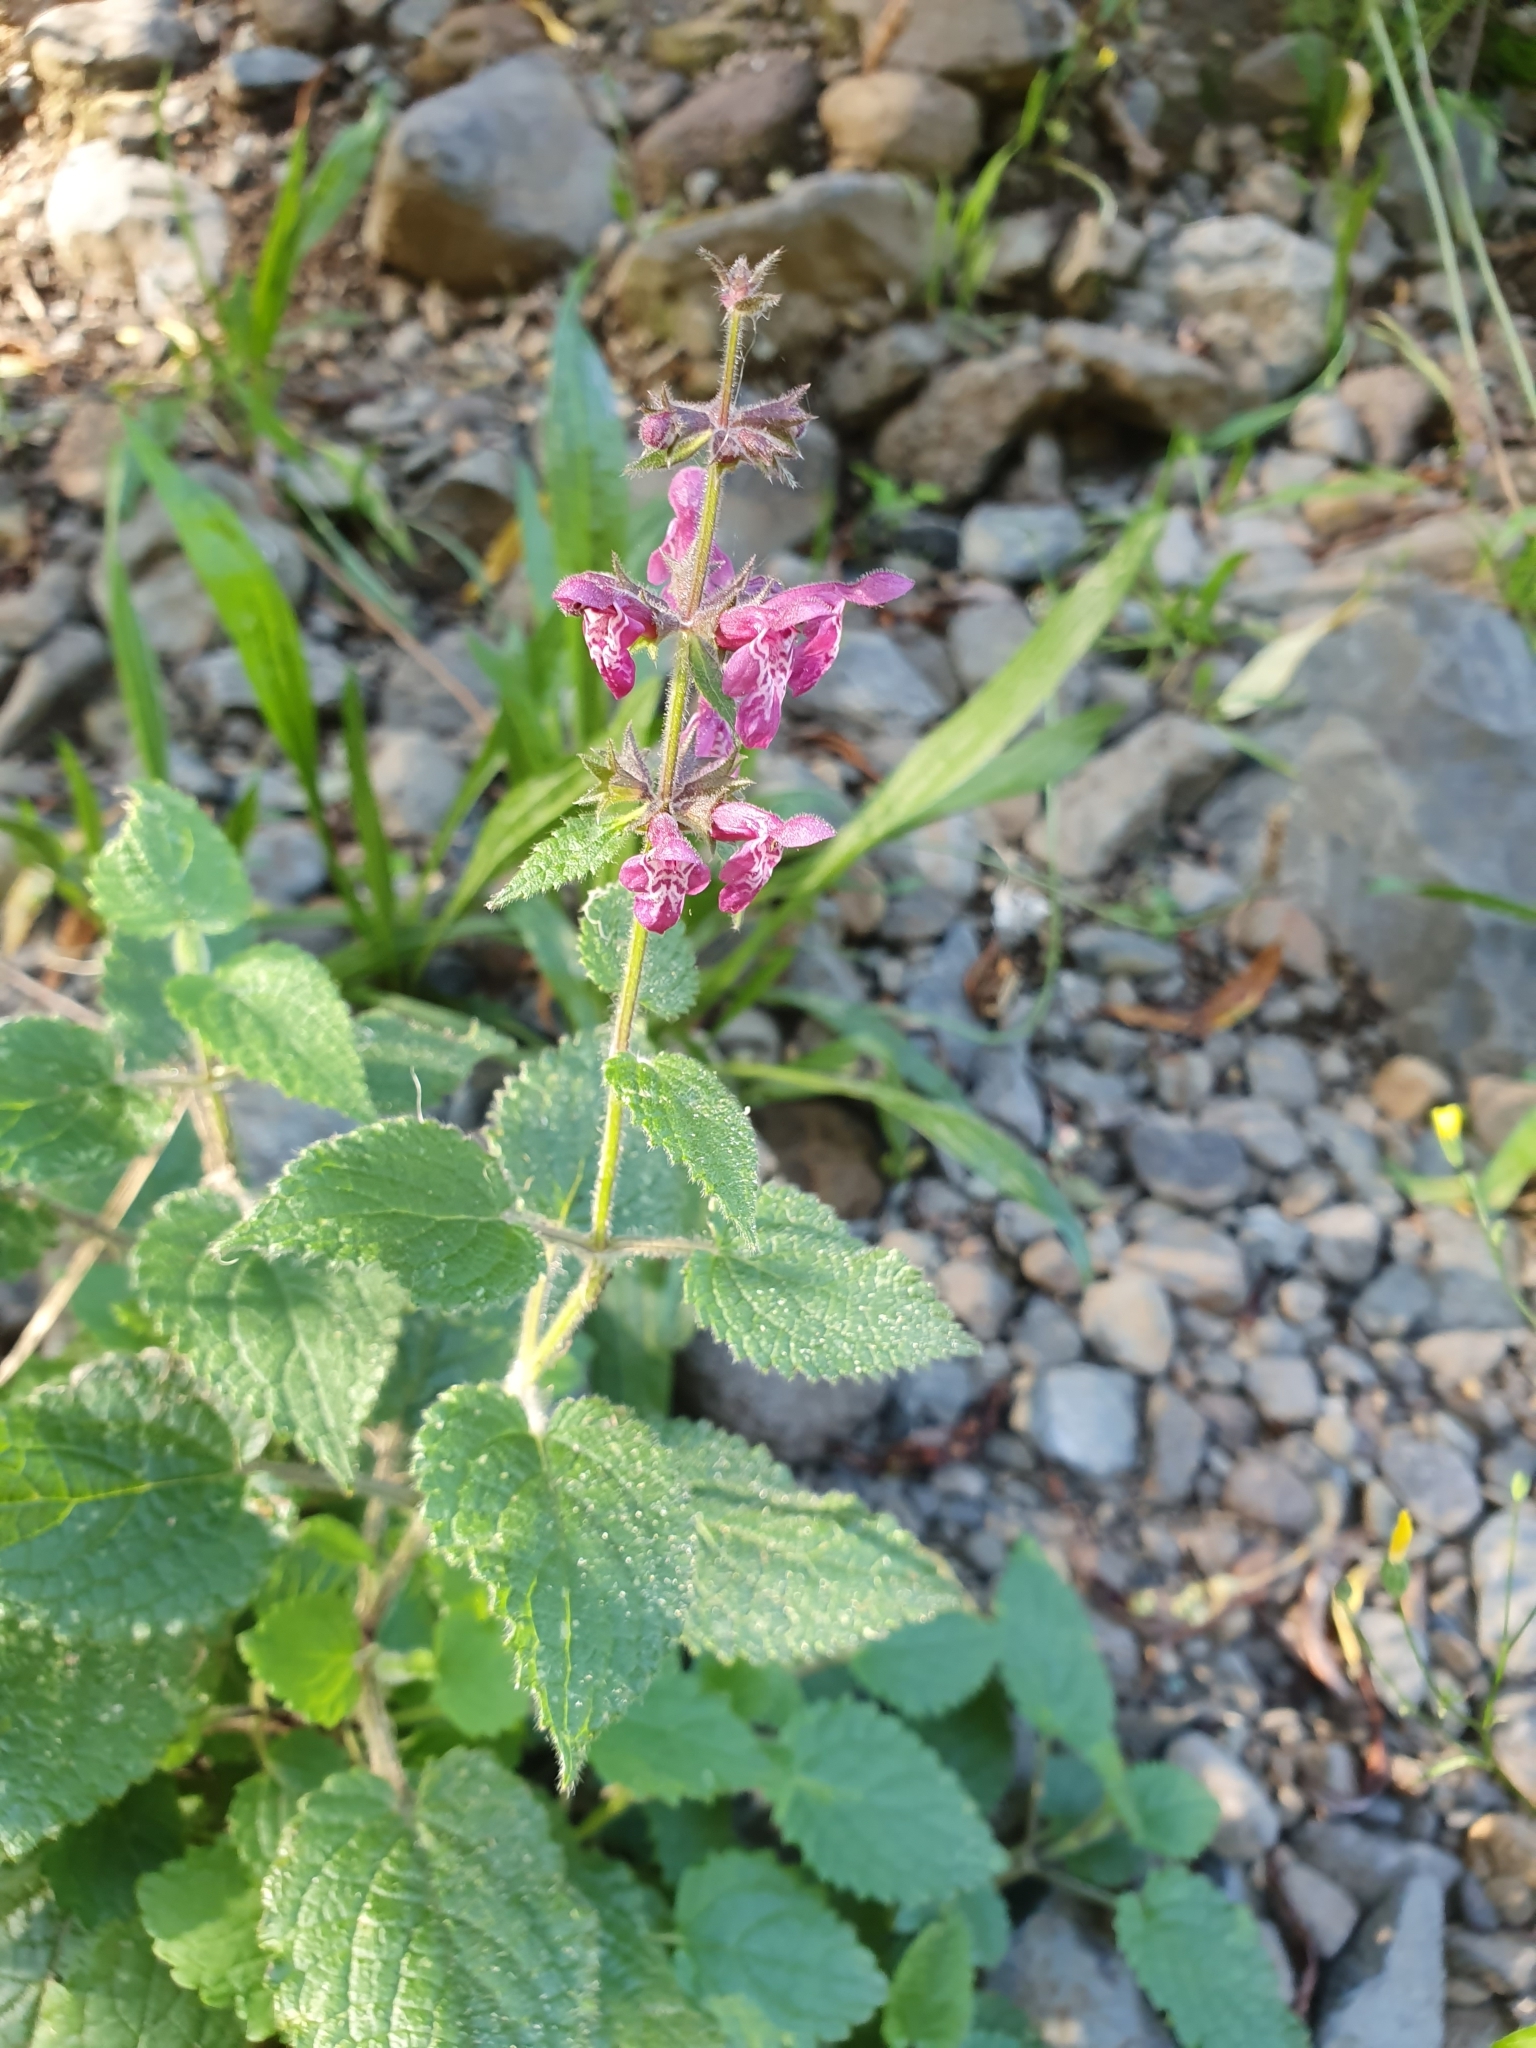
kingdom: Plantae
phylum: Tracheophyta
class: Magnoliopsida
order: Lamiales
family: Lamiaceae
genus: Stachys
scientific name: Stachys sylvatica
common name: Hedge woundwort
